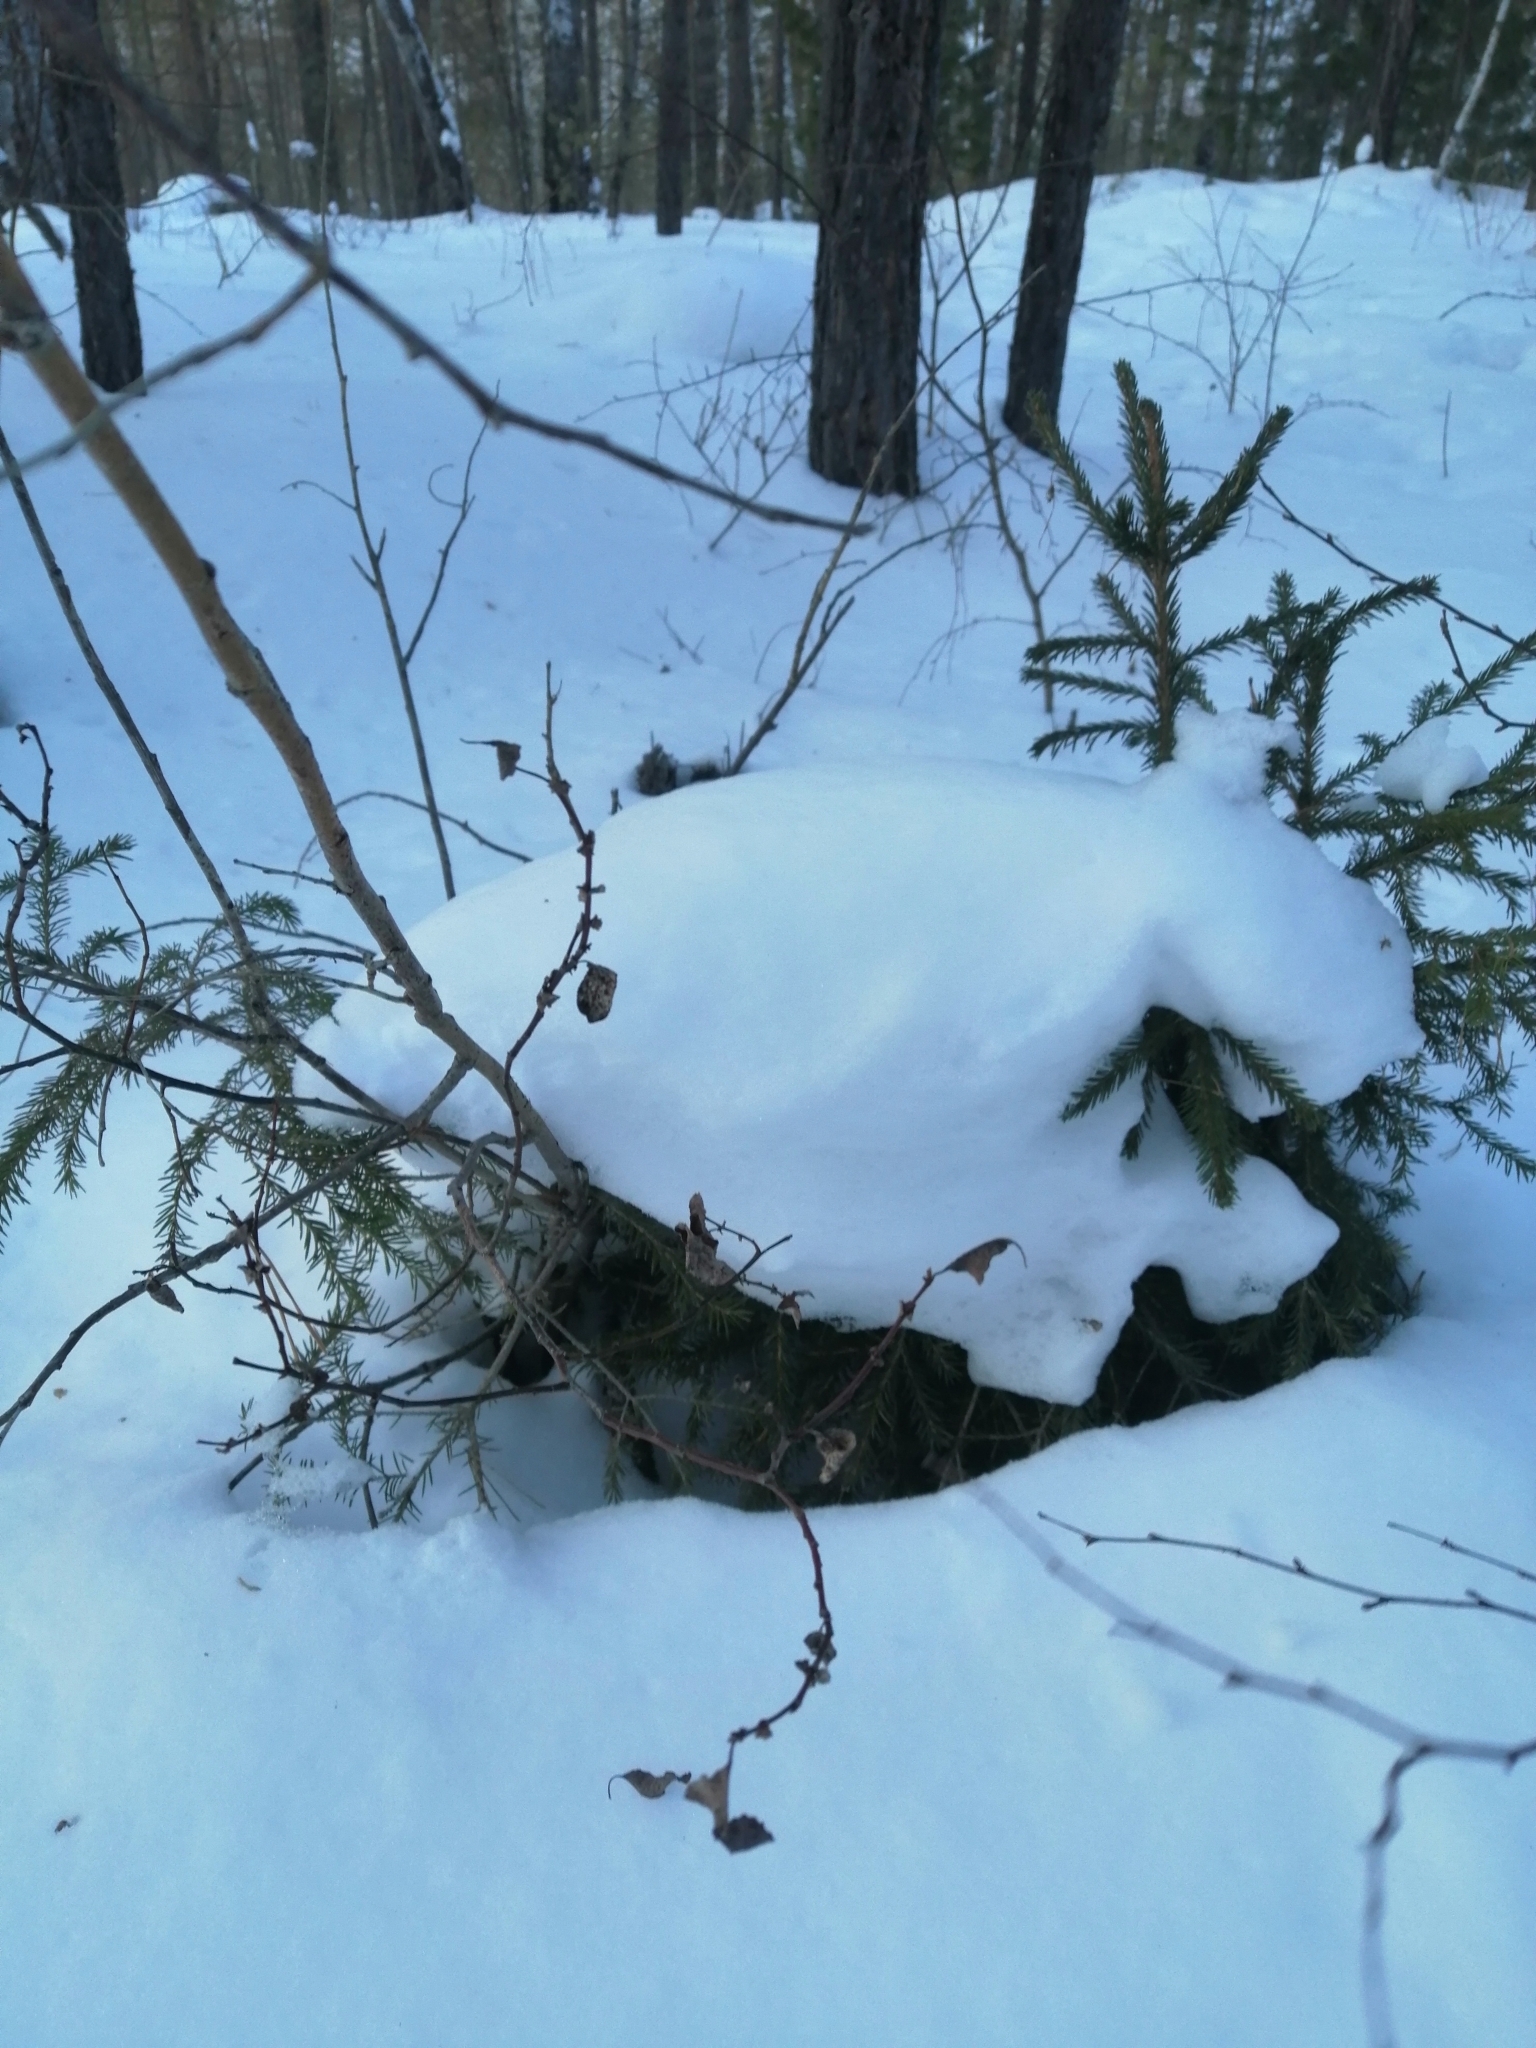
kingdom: Plantae
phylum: Tracheophyta
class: Pinopsida
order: Pinales
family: Pinaceae
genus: Picea
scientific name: Picea obovata
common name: Siberian spruce
